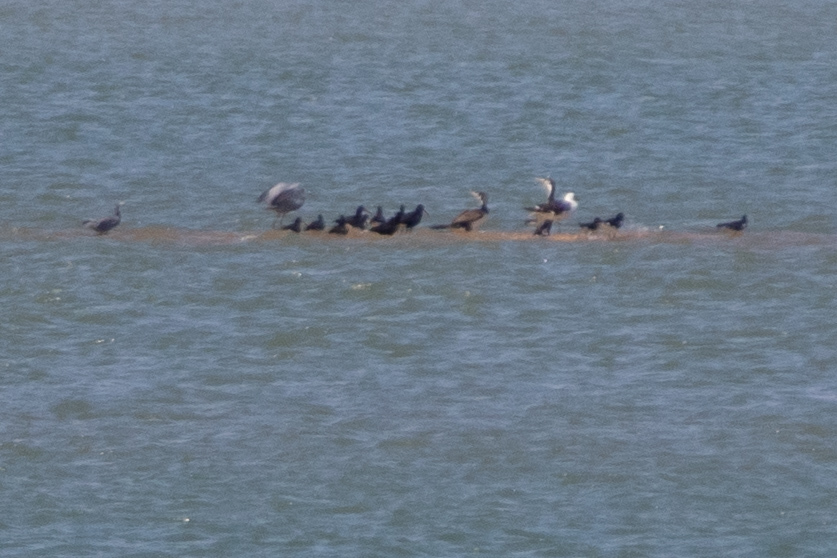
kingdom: Animalia
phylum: Chordata
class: Aves
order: Suliformes
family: Phalacrocoracidae
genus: Phalacrocorax
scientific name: Phalacrocorax varius
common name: Pied cormorant
